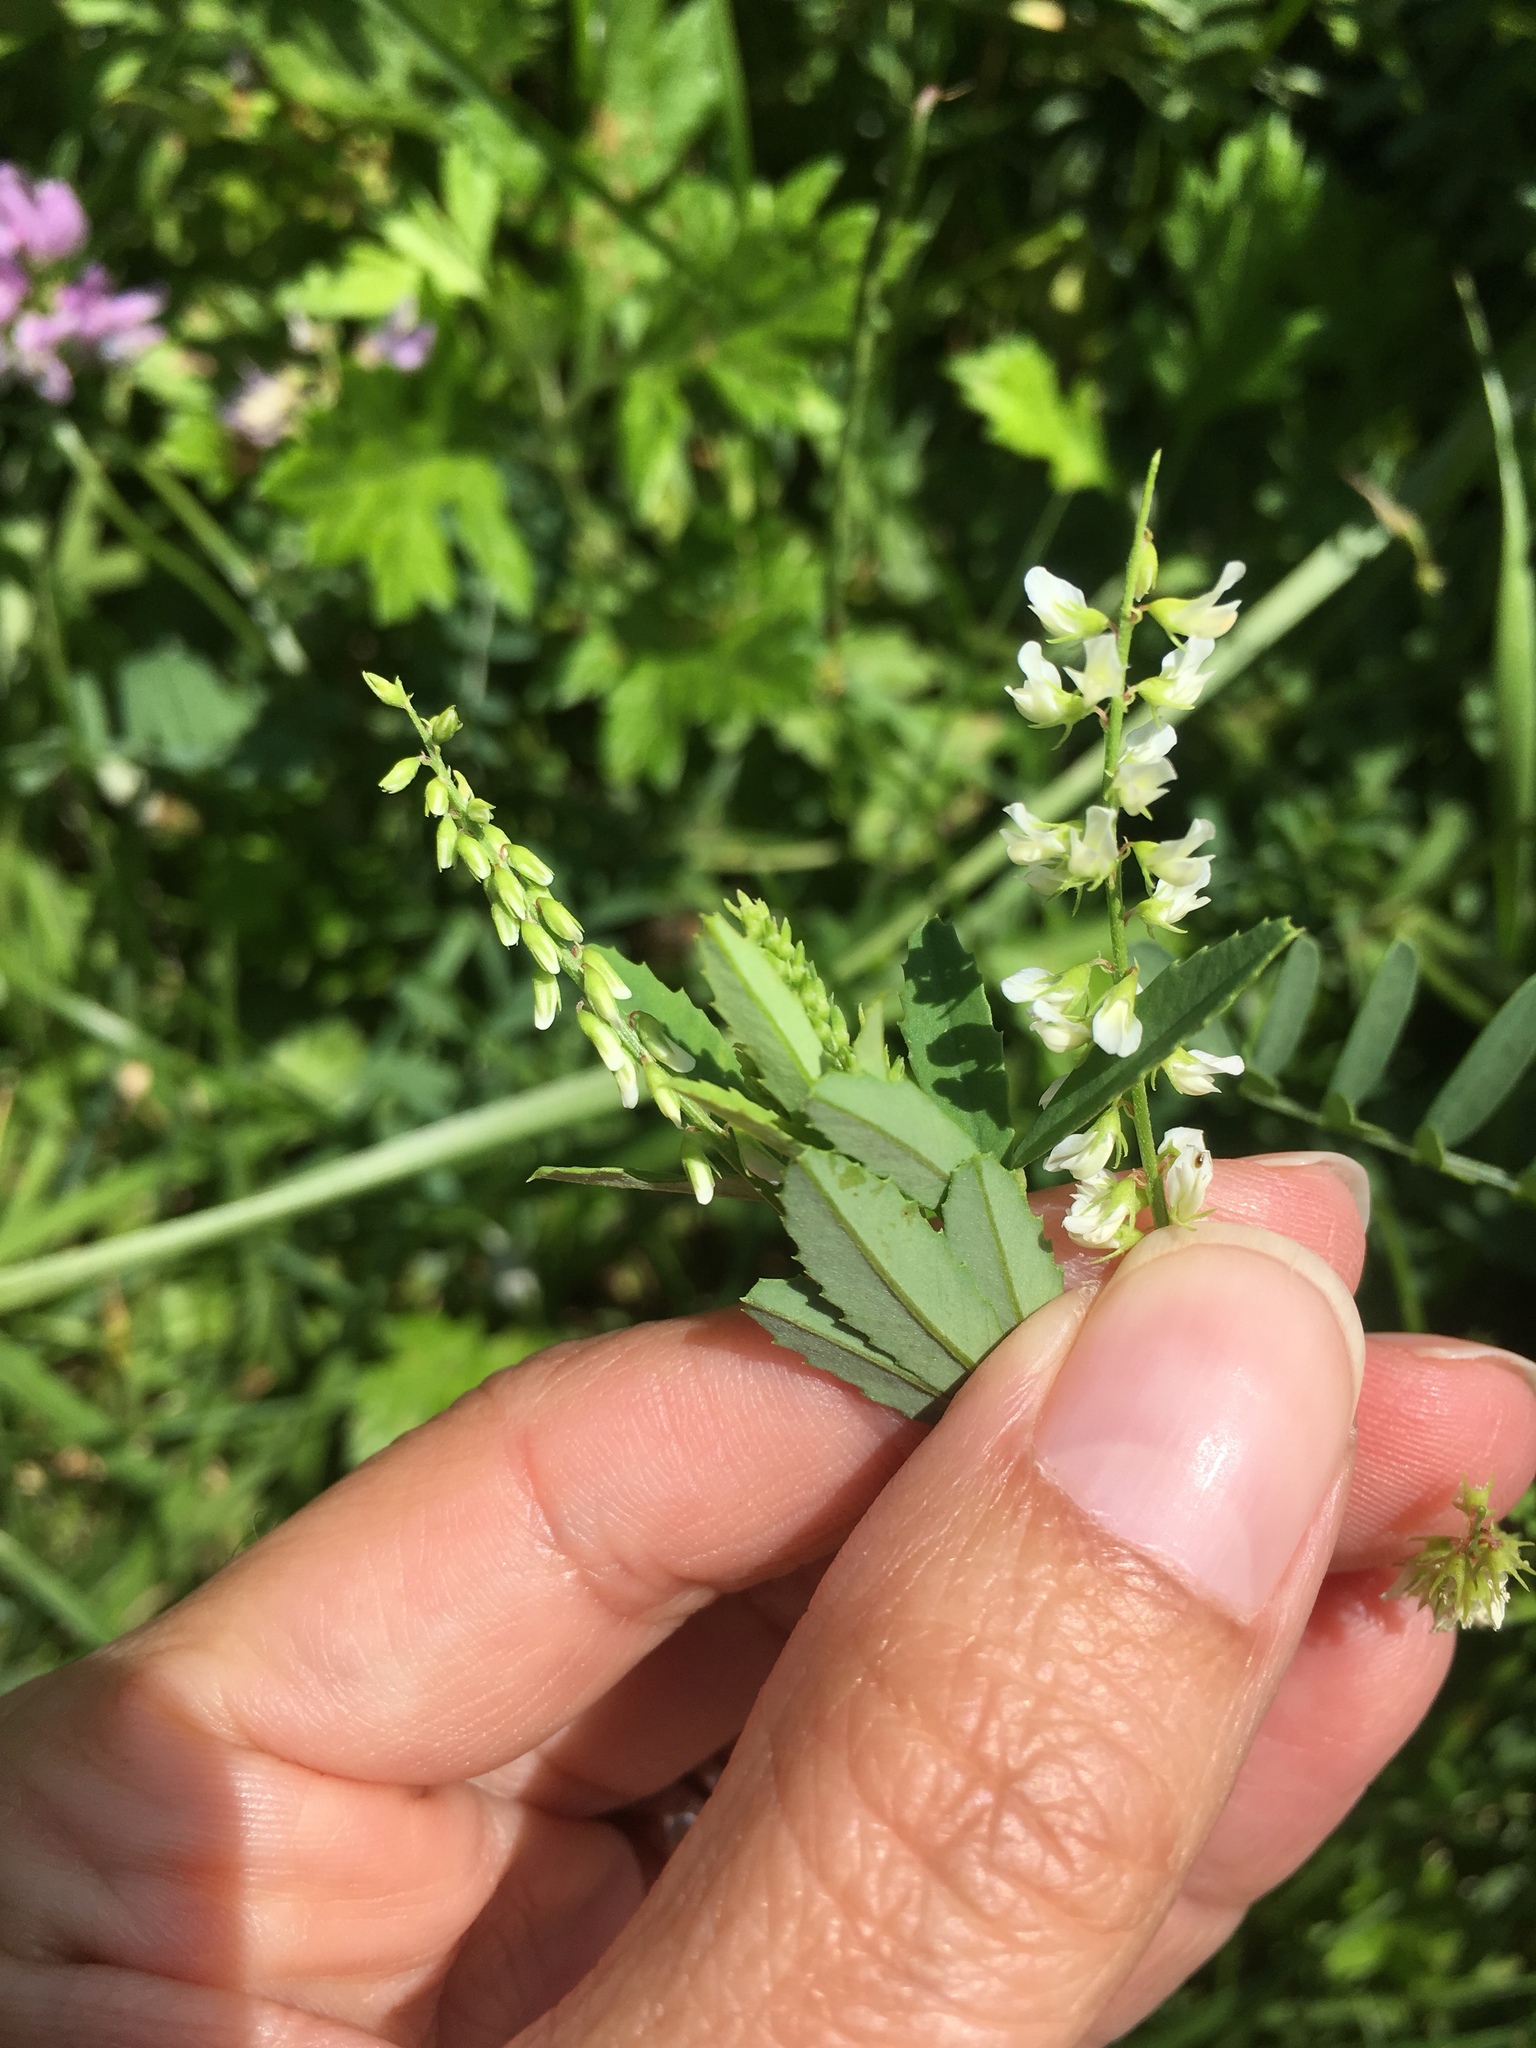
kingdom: Plantae
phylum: Tracheophyta
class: Magnoliopsida
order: Fabales
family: Fabaceae
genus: Melilotus
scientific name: Melilotus albus
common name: White melilot
